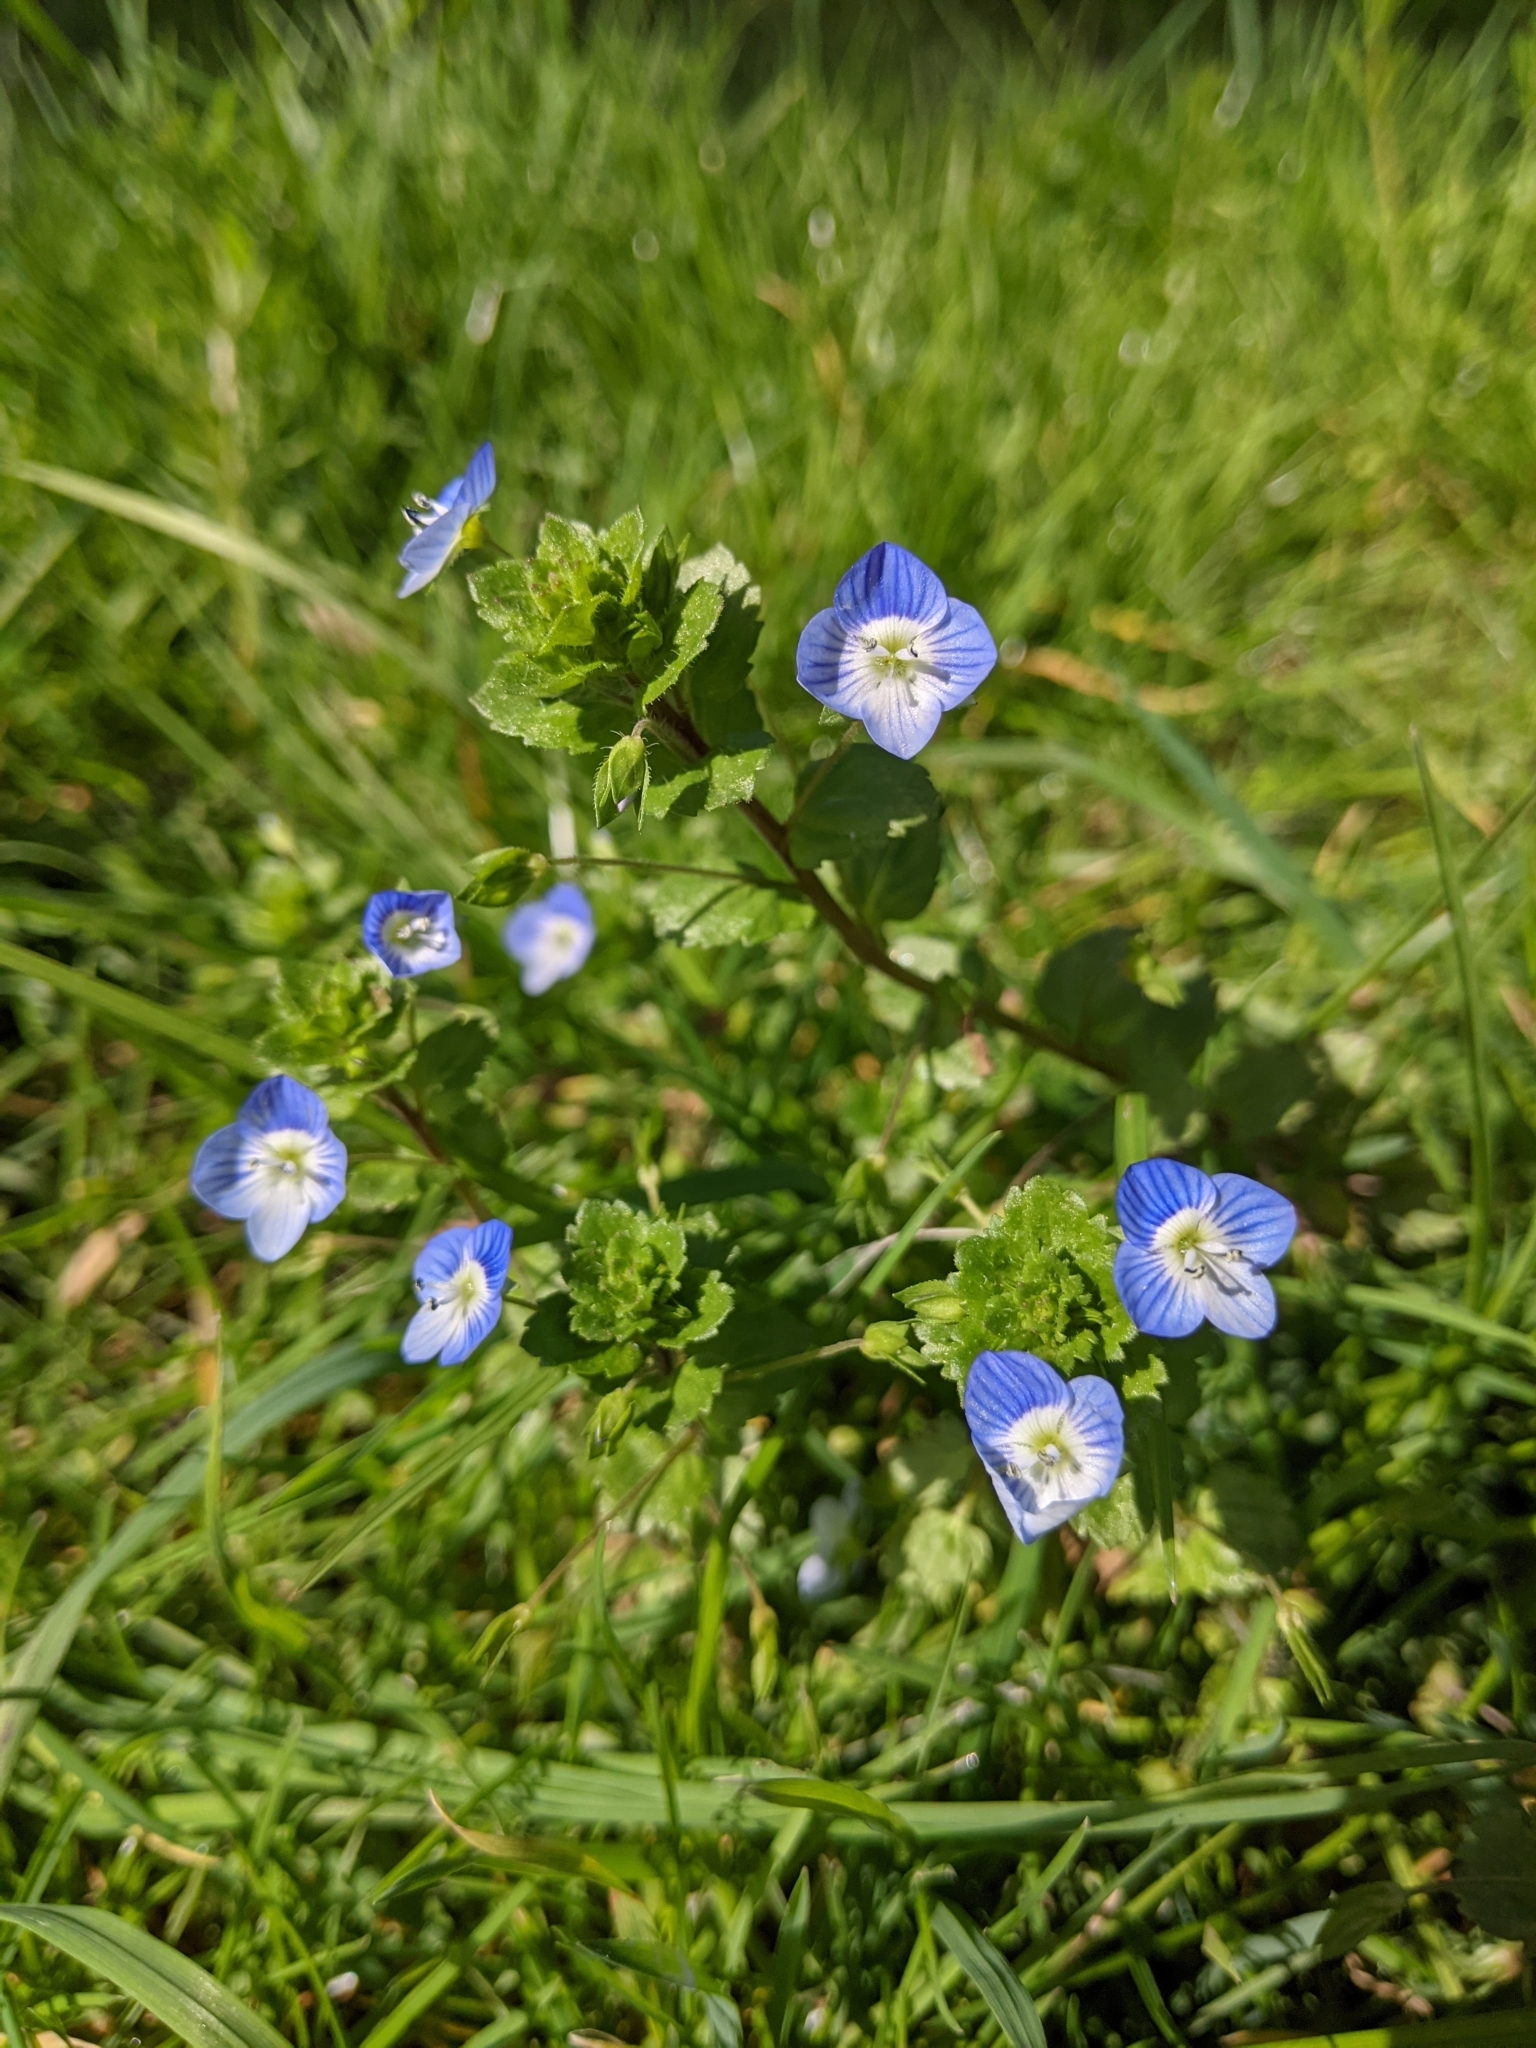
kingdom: Plantae
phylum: Tracheophyta
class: Magnoliopsida
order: Lamiales
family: Plantaginaceae
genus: Veronica
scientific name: Veronica persica
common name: Common field-speedwell
